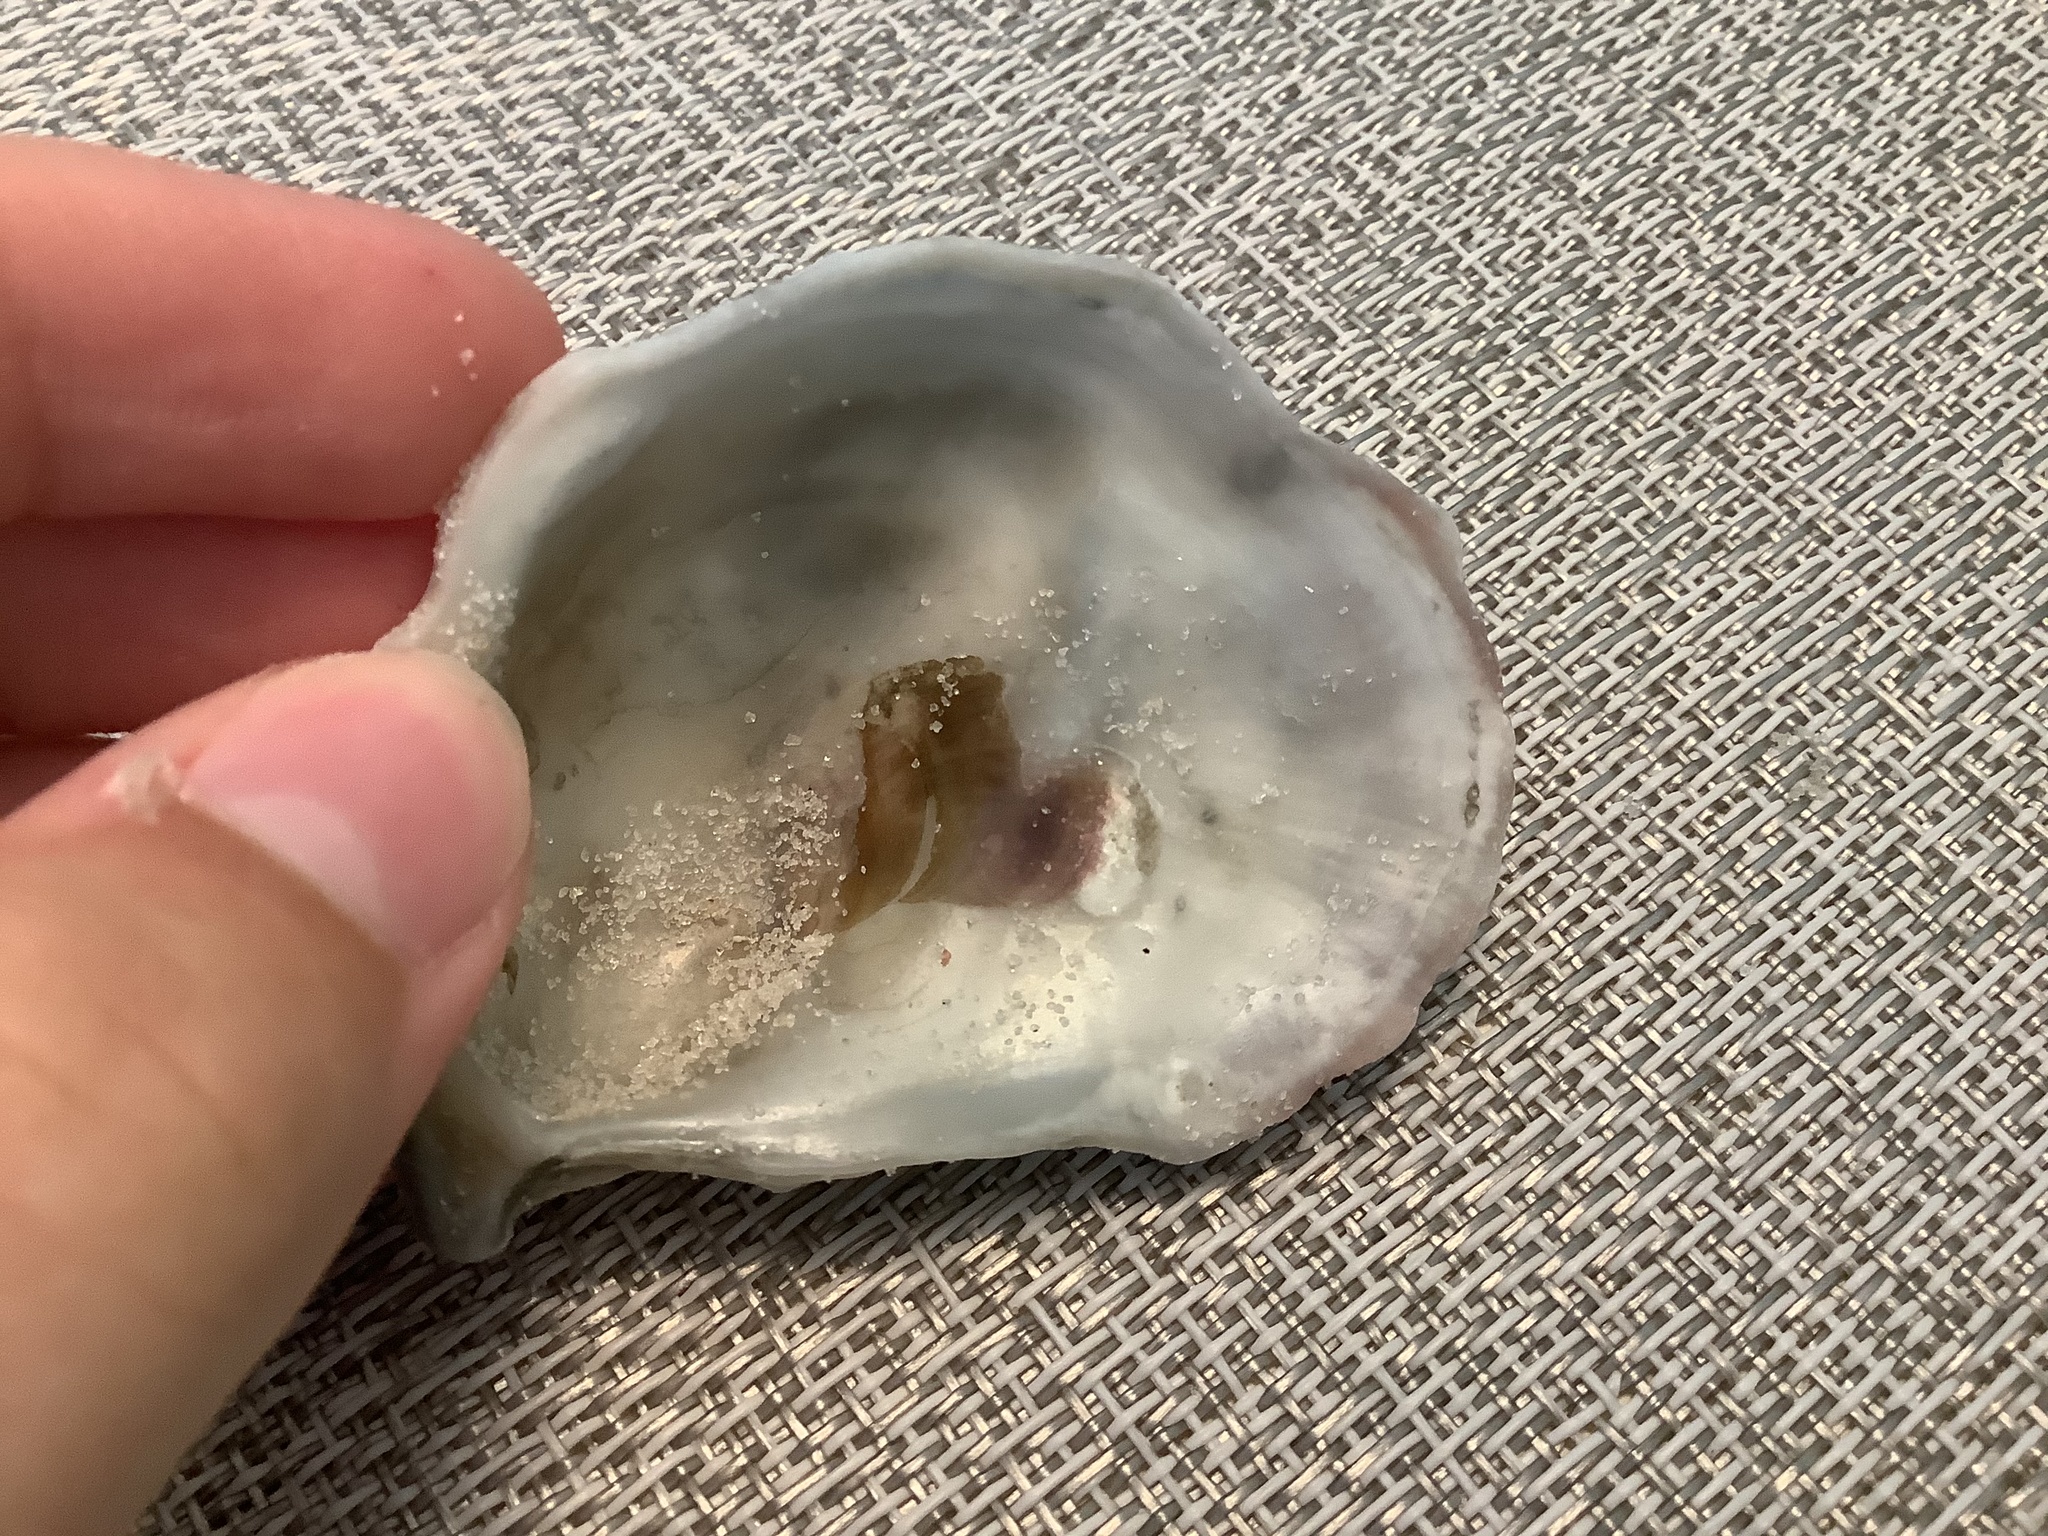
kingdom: Animalia
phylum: Mollusca
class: Bivalvia
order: Ostreida
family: Ostreidae
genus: Crassostrea
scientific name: Crassostrea virginica
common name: American oyster
